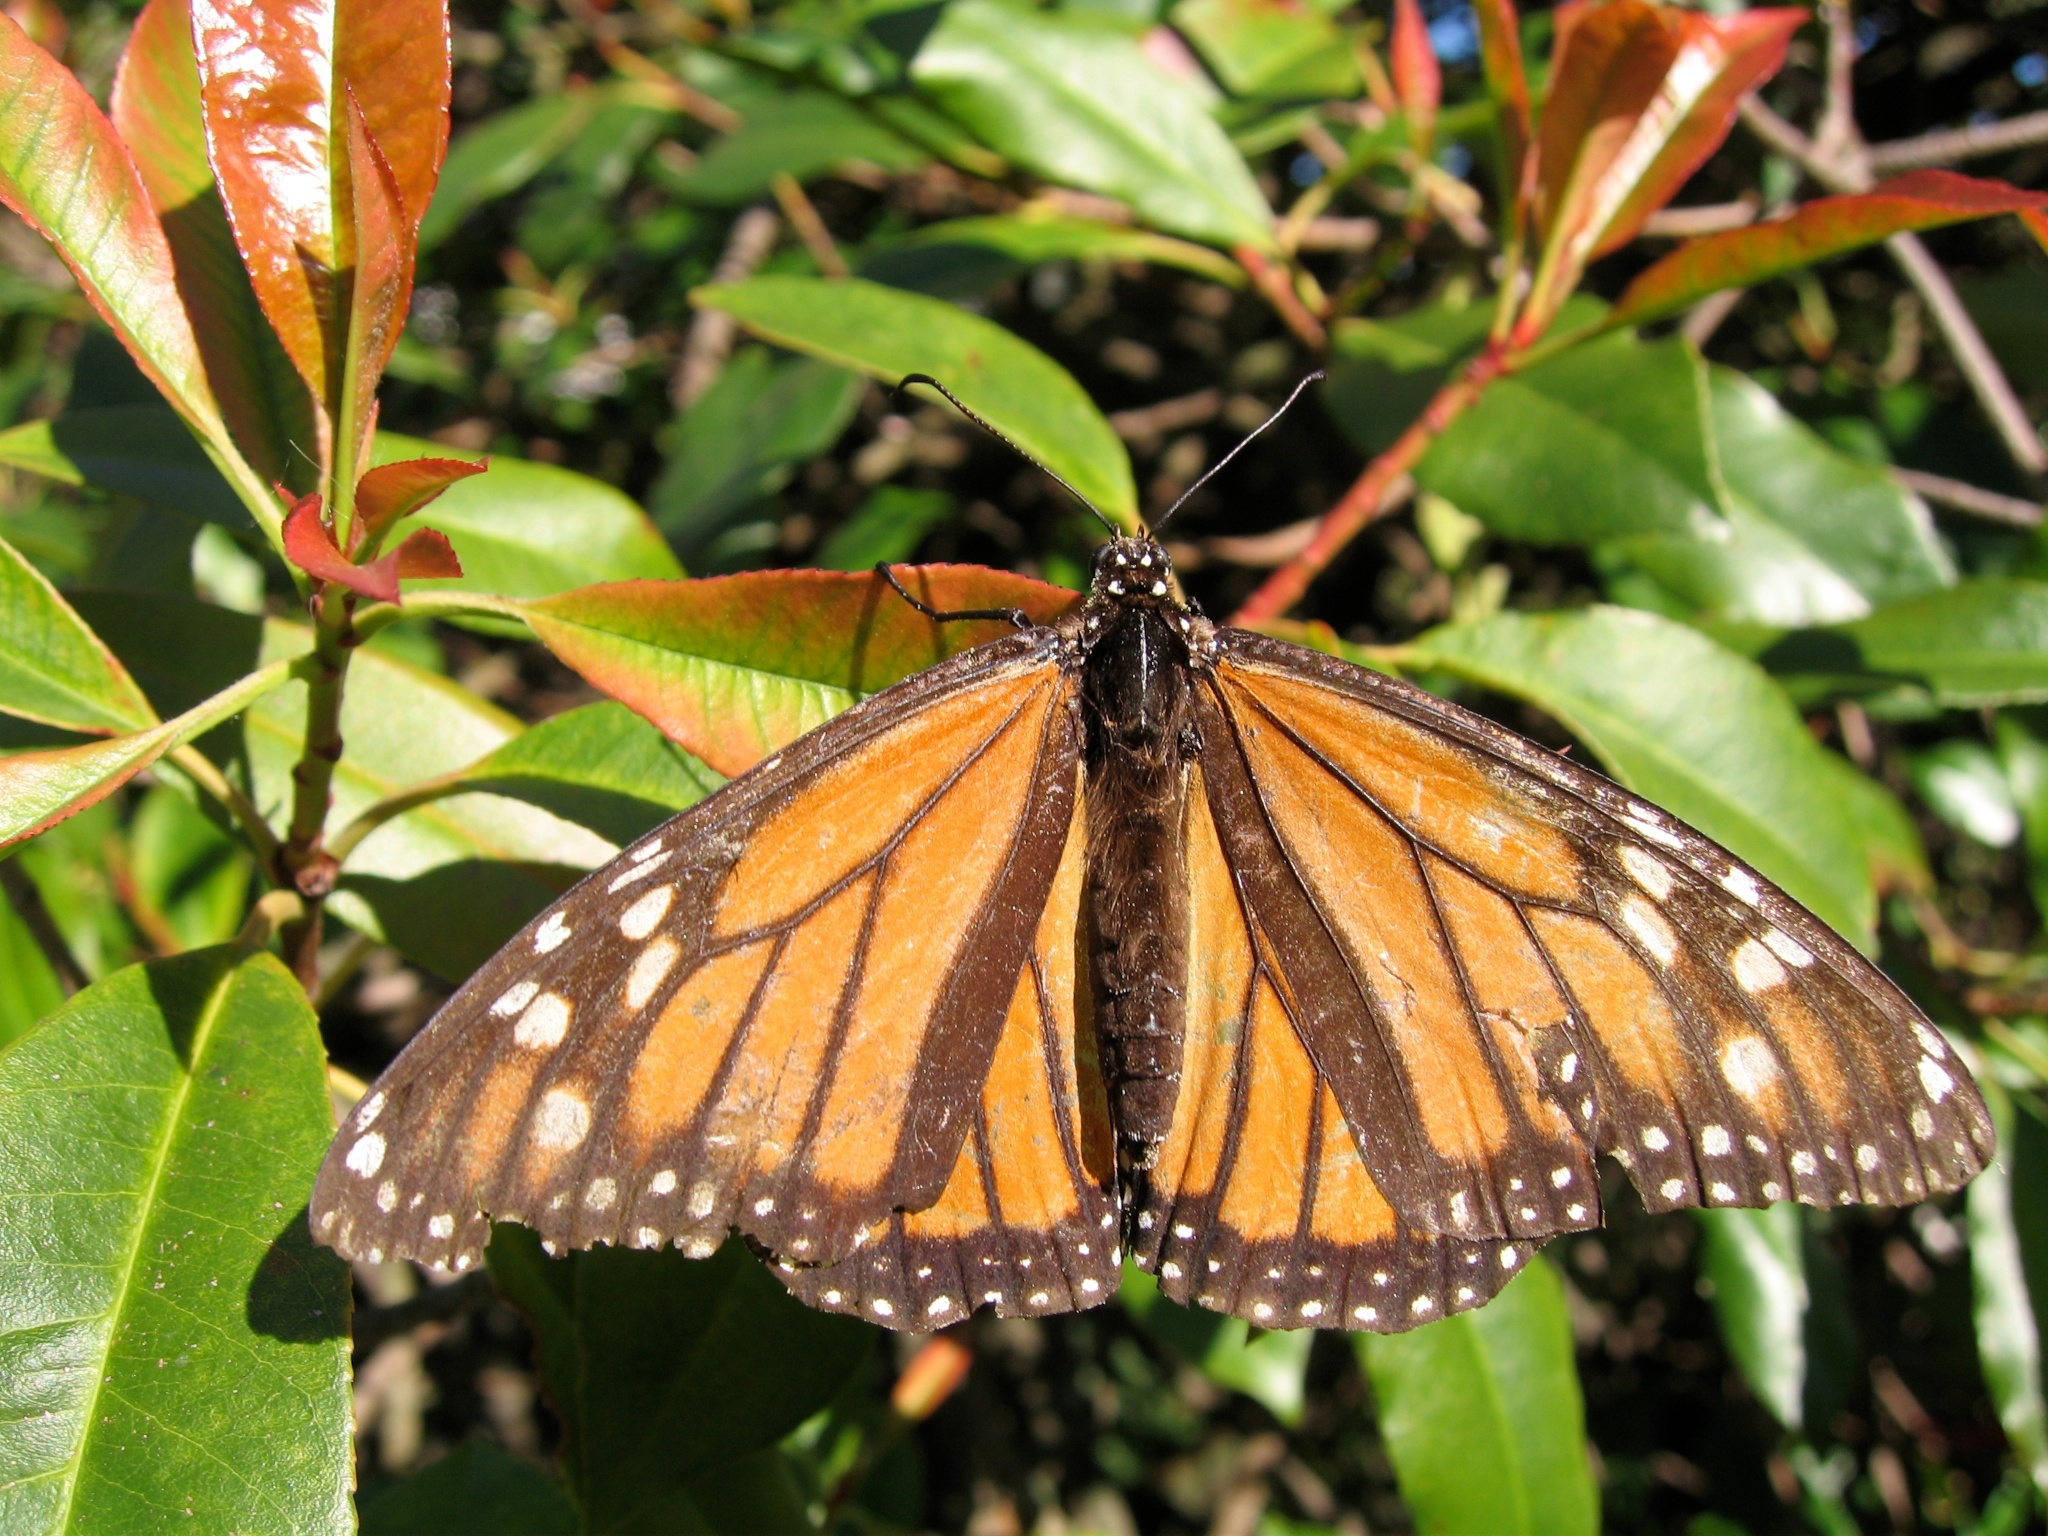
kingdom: Animalia
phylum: Arthropoda
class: Insecta
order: Lepidoptera
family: Nymphalidae
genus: Danaus
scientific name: Danaus plexippus
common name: Monarch
